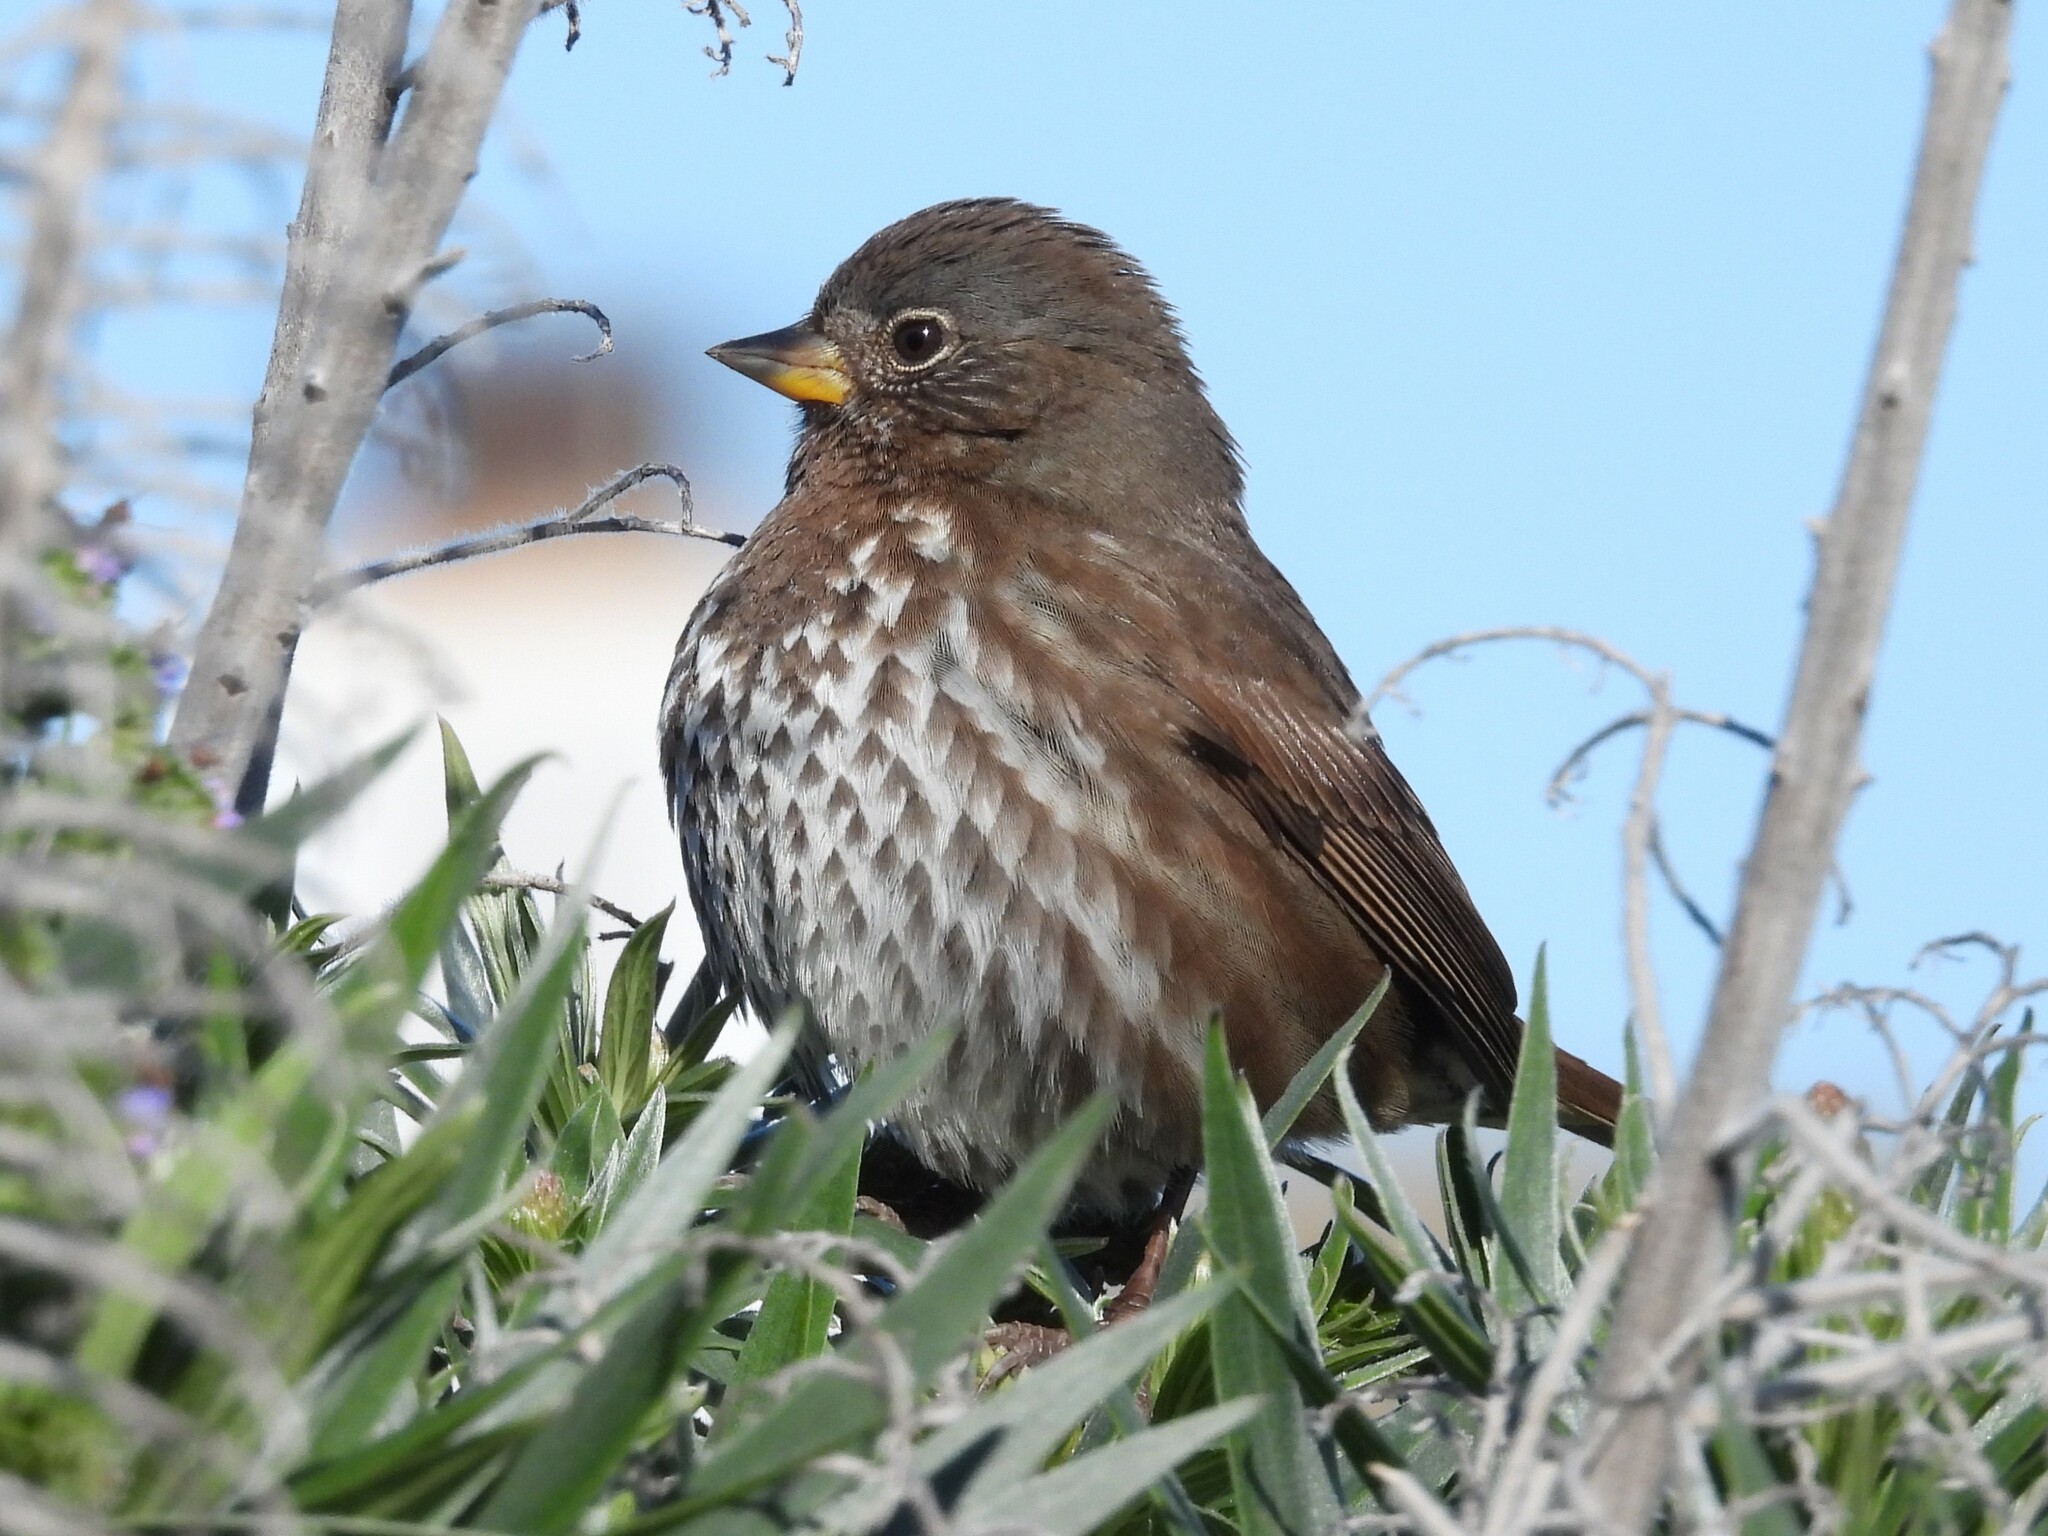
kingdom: Animalia
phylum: Chordata
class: Aves
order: Passeriformes
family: Passerellidae
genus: Passerella
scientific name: Passerella iliaca
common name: Fox sparrow
